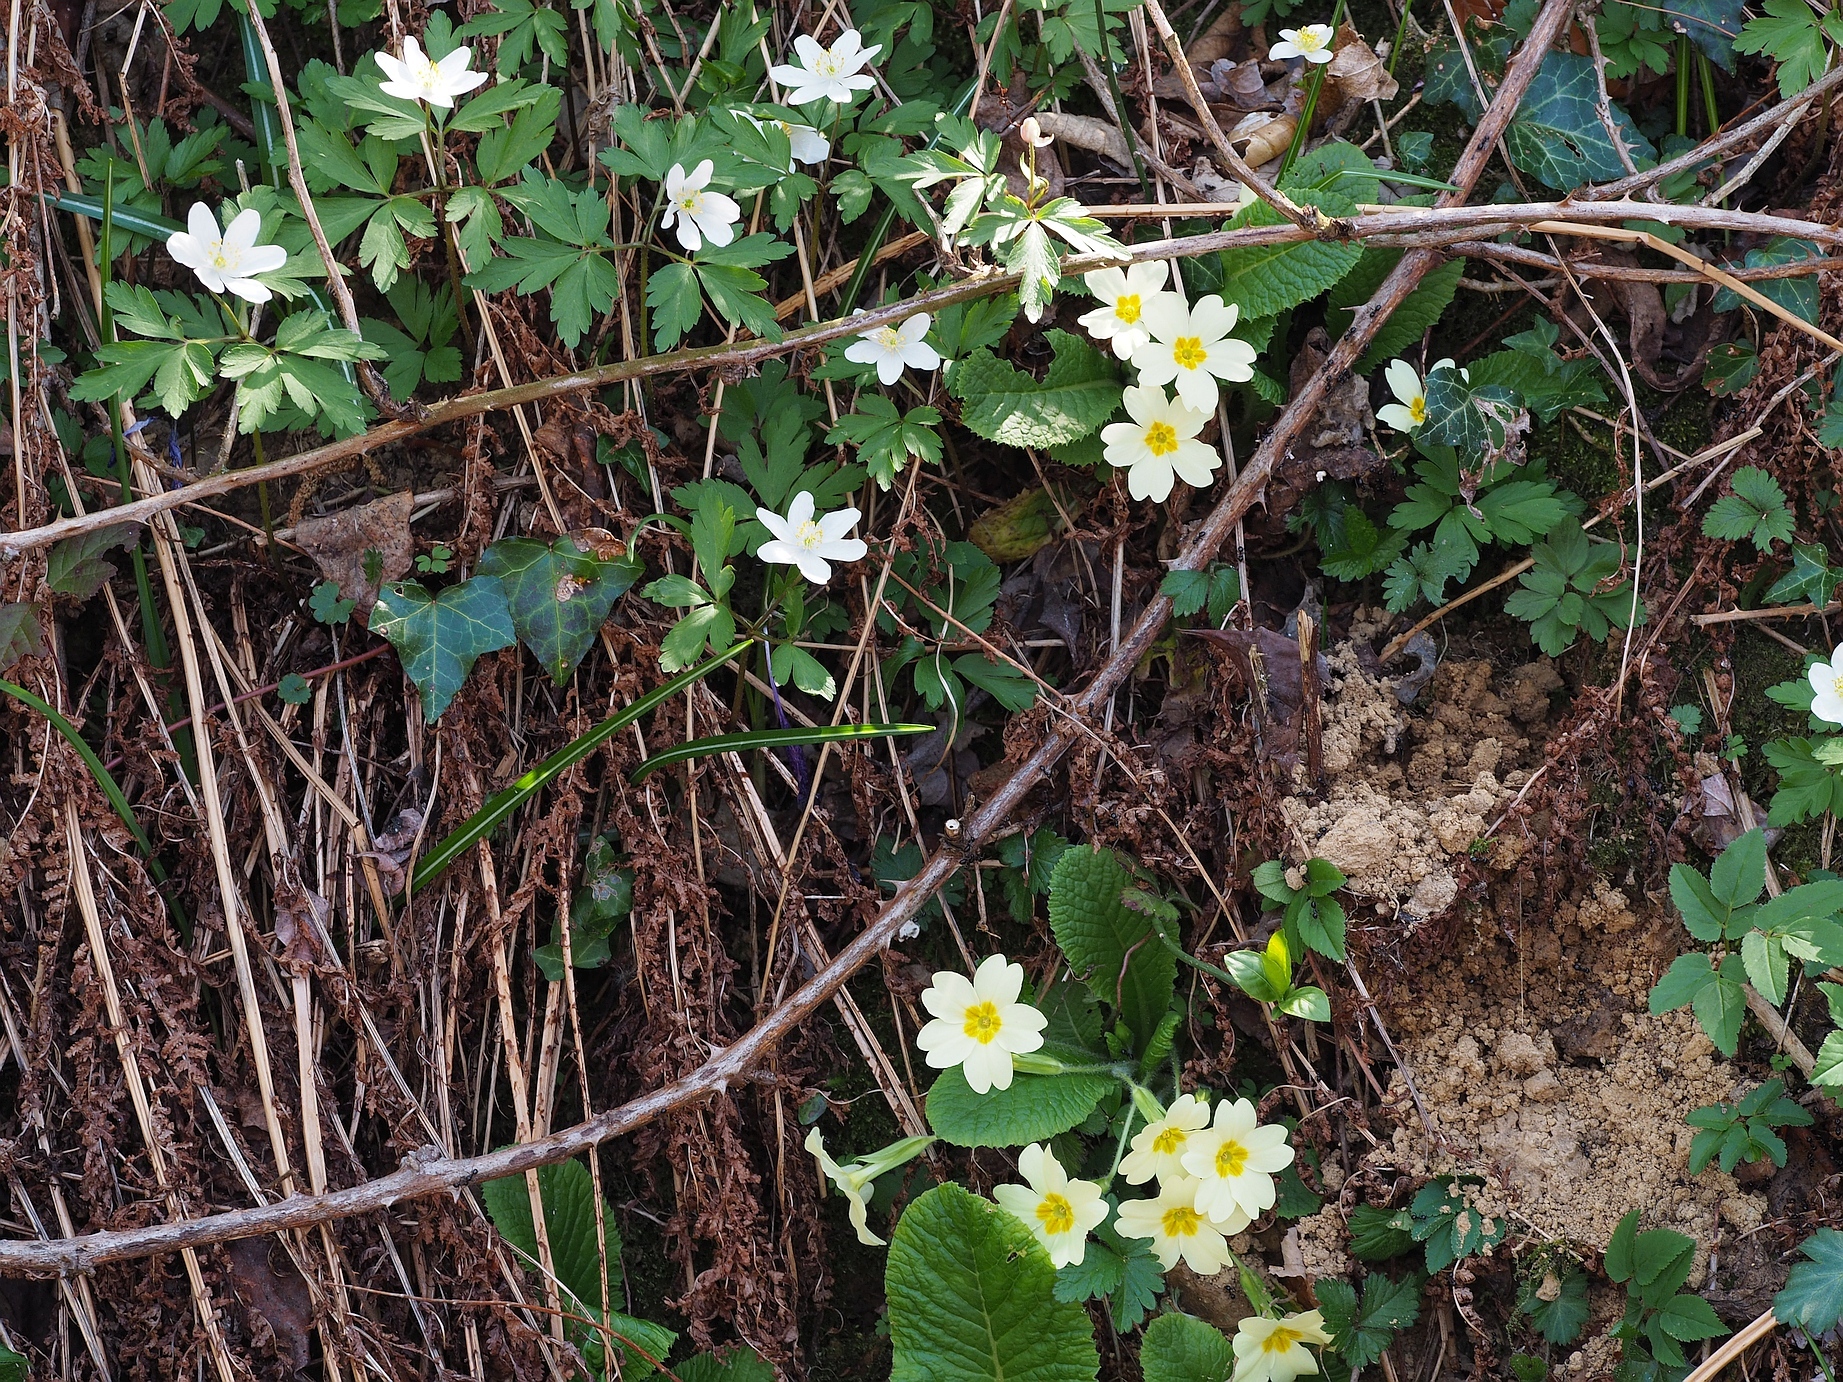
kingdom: Plantae
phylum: Tracheophyta
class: Magnoliopsida
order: Ericales
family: Primulaceae
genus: Primula
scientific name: Primula vulgaris
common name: Primrose
